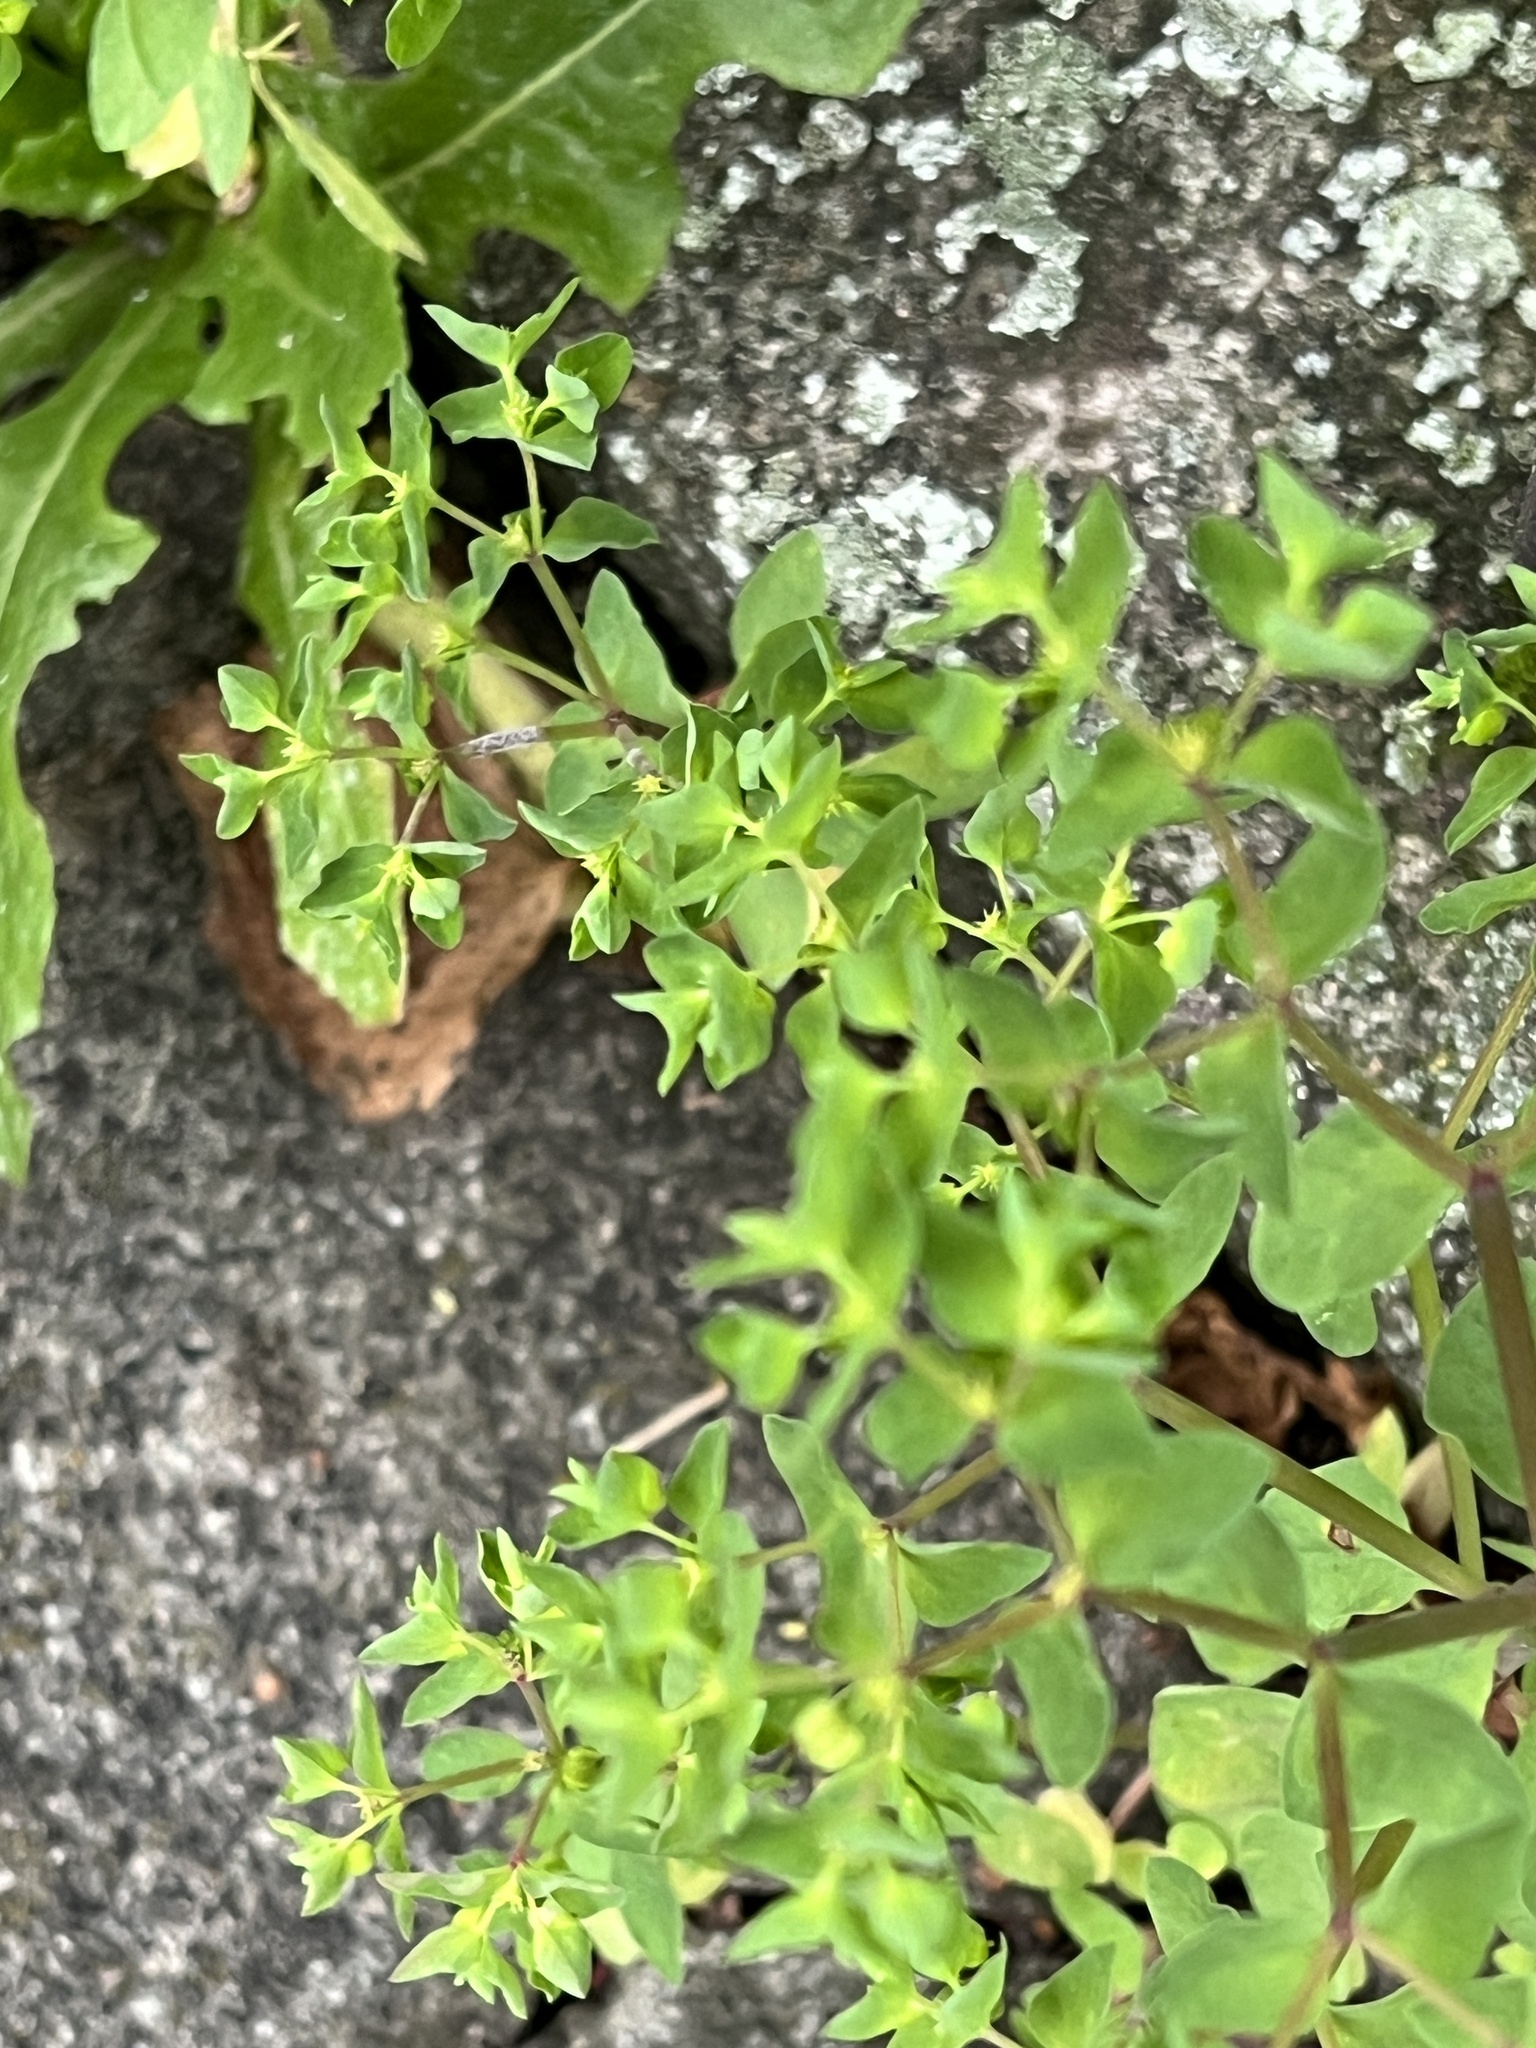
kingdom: Plantae
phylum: Tracheophyta
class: Magnoliopsida
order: Malpighiales
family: Euphorbiaceae
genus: Euphorbia
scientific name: Euphorbia peplus
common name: Petty spurge
